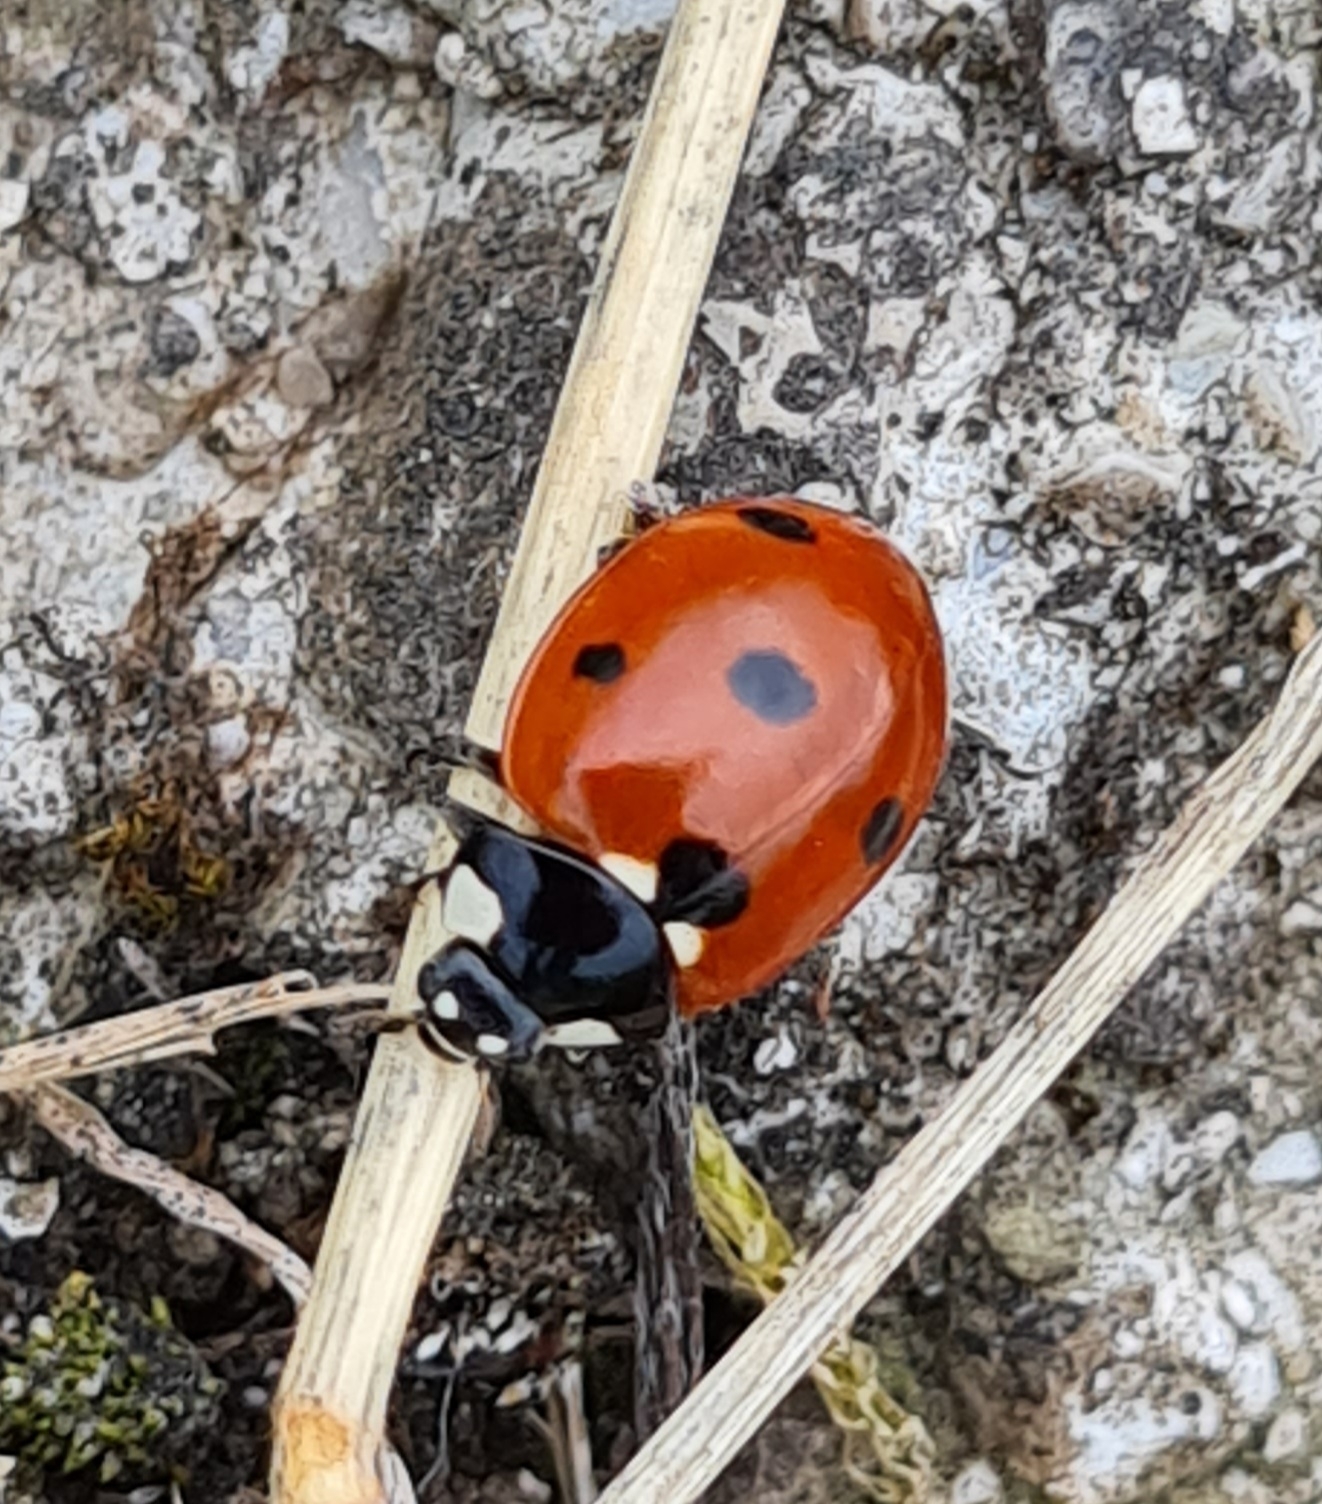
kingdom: Animalia
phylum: Arthropoda
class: Insecta
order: Coleoptera
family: Coccinellidae
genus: Coccinella
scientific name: Coccinella septempunctata
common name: Sevenspotted lady beetle
